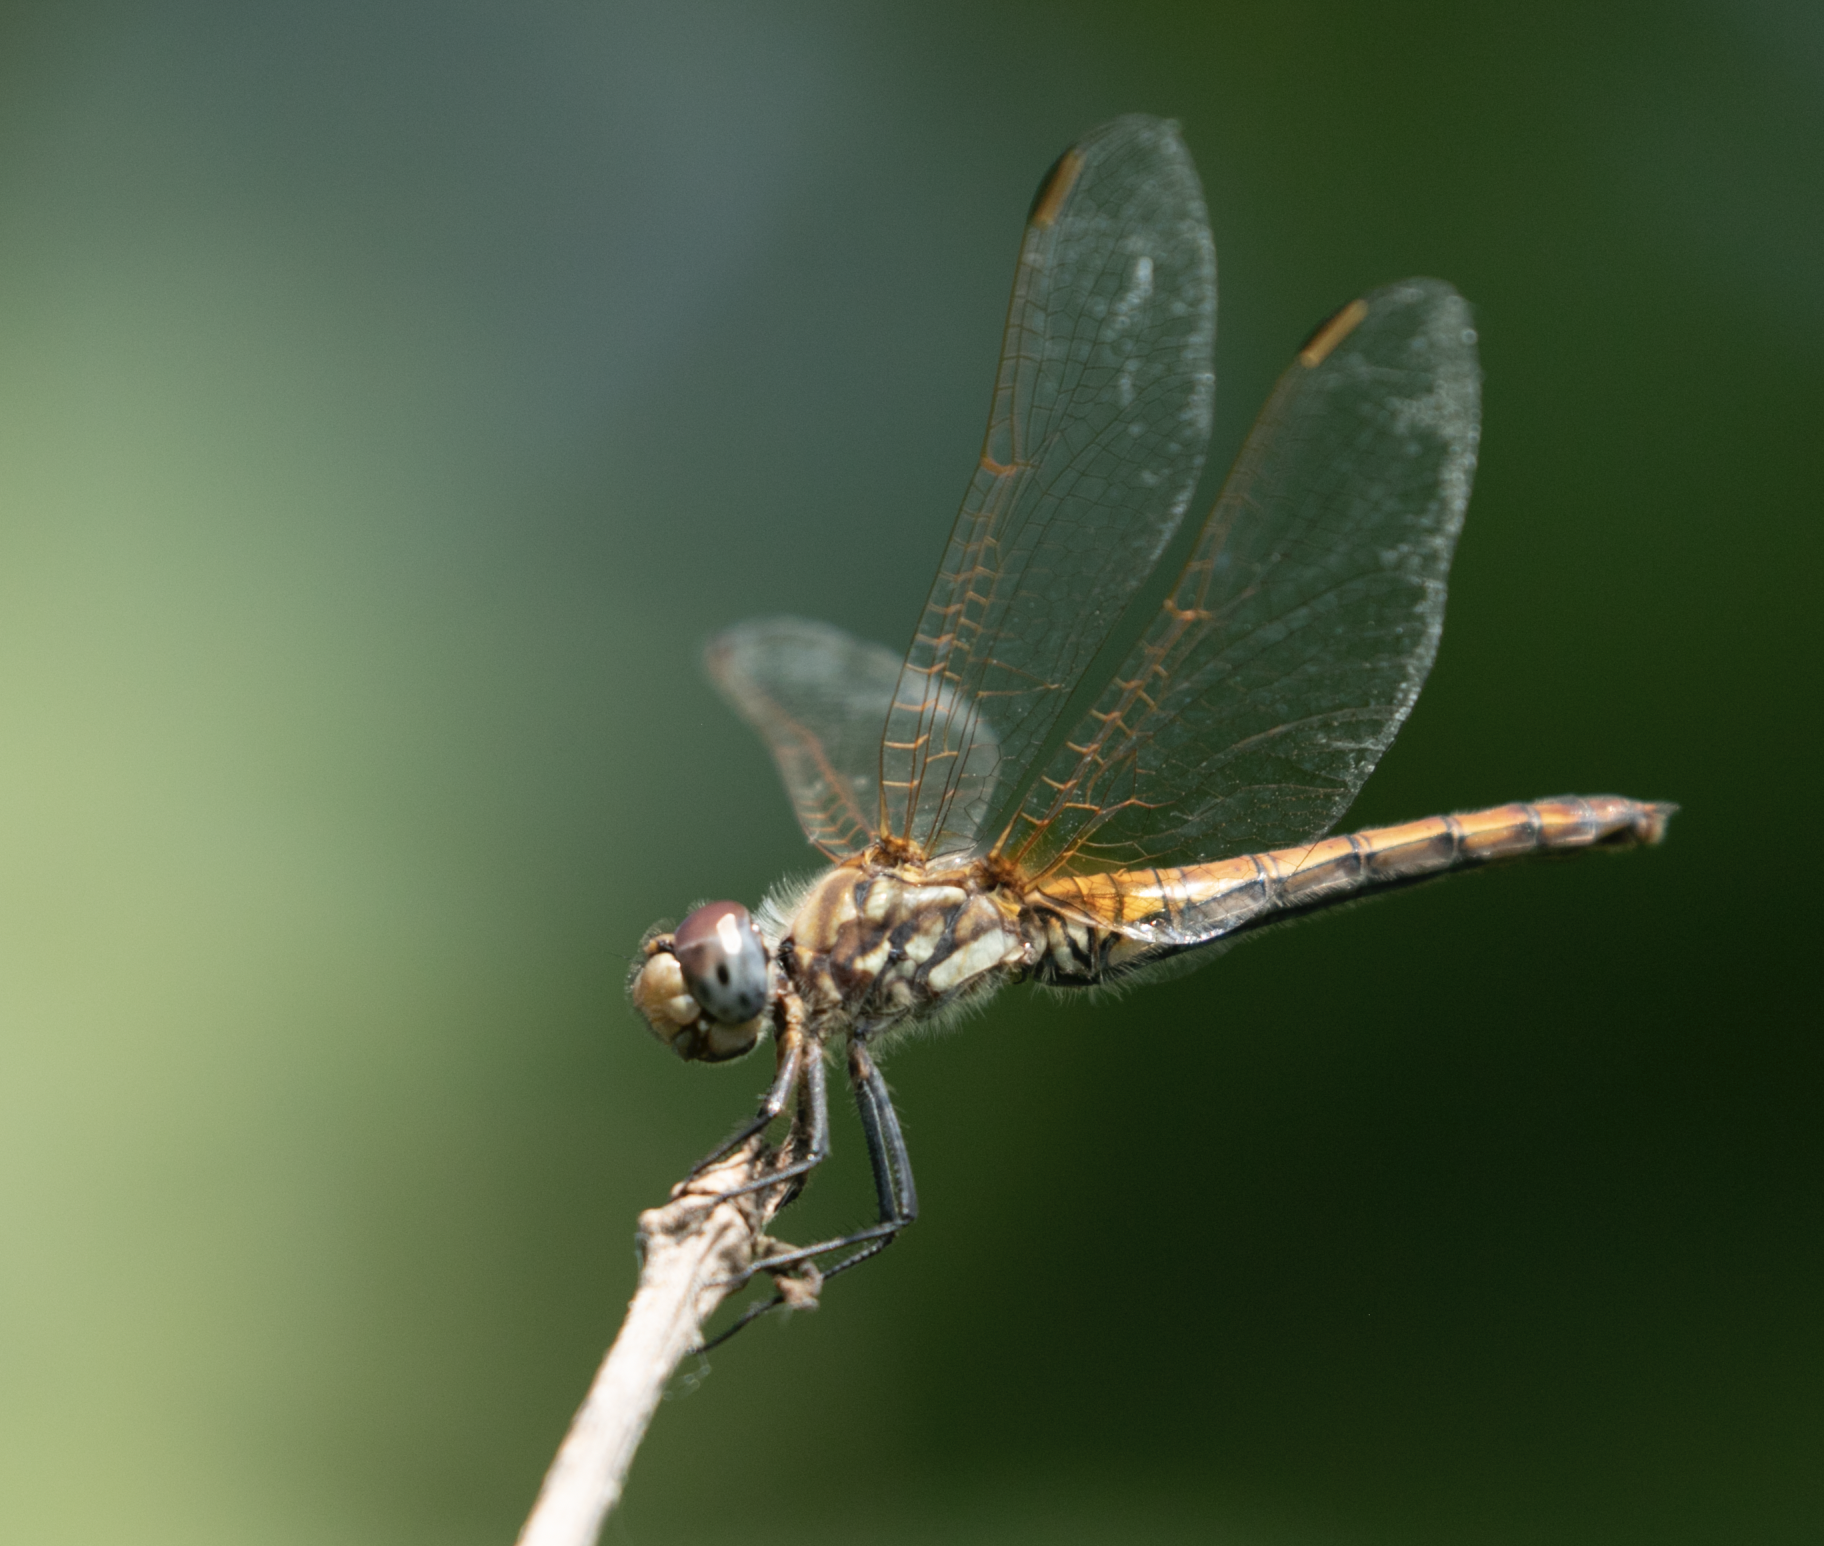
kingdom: Animalia
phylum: Arthropoda
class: Insecta
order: Odonata
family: Libellulidae
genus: Trithemis
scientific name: Trithemis annulata
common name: Violet dropwing
